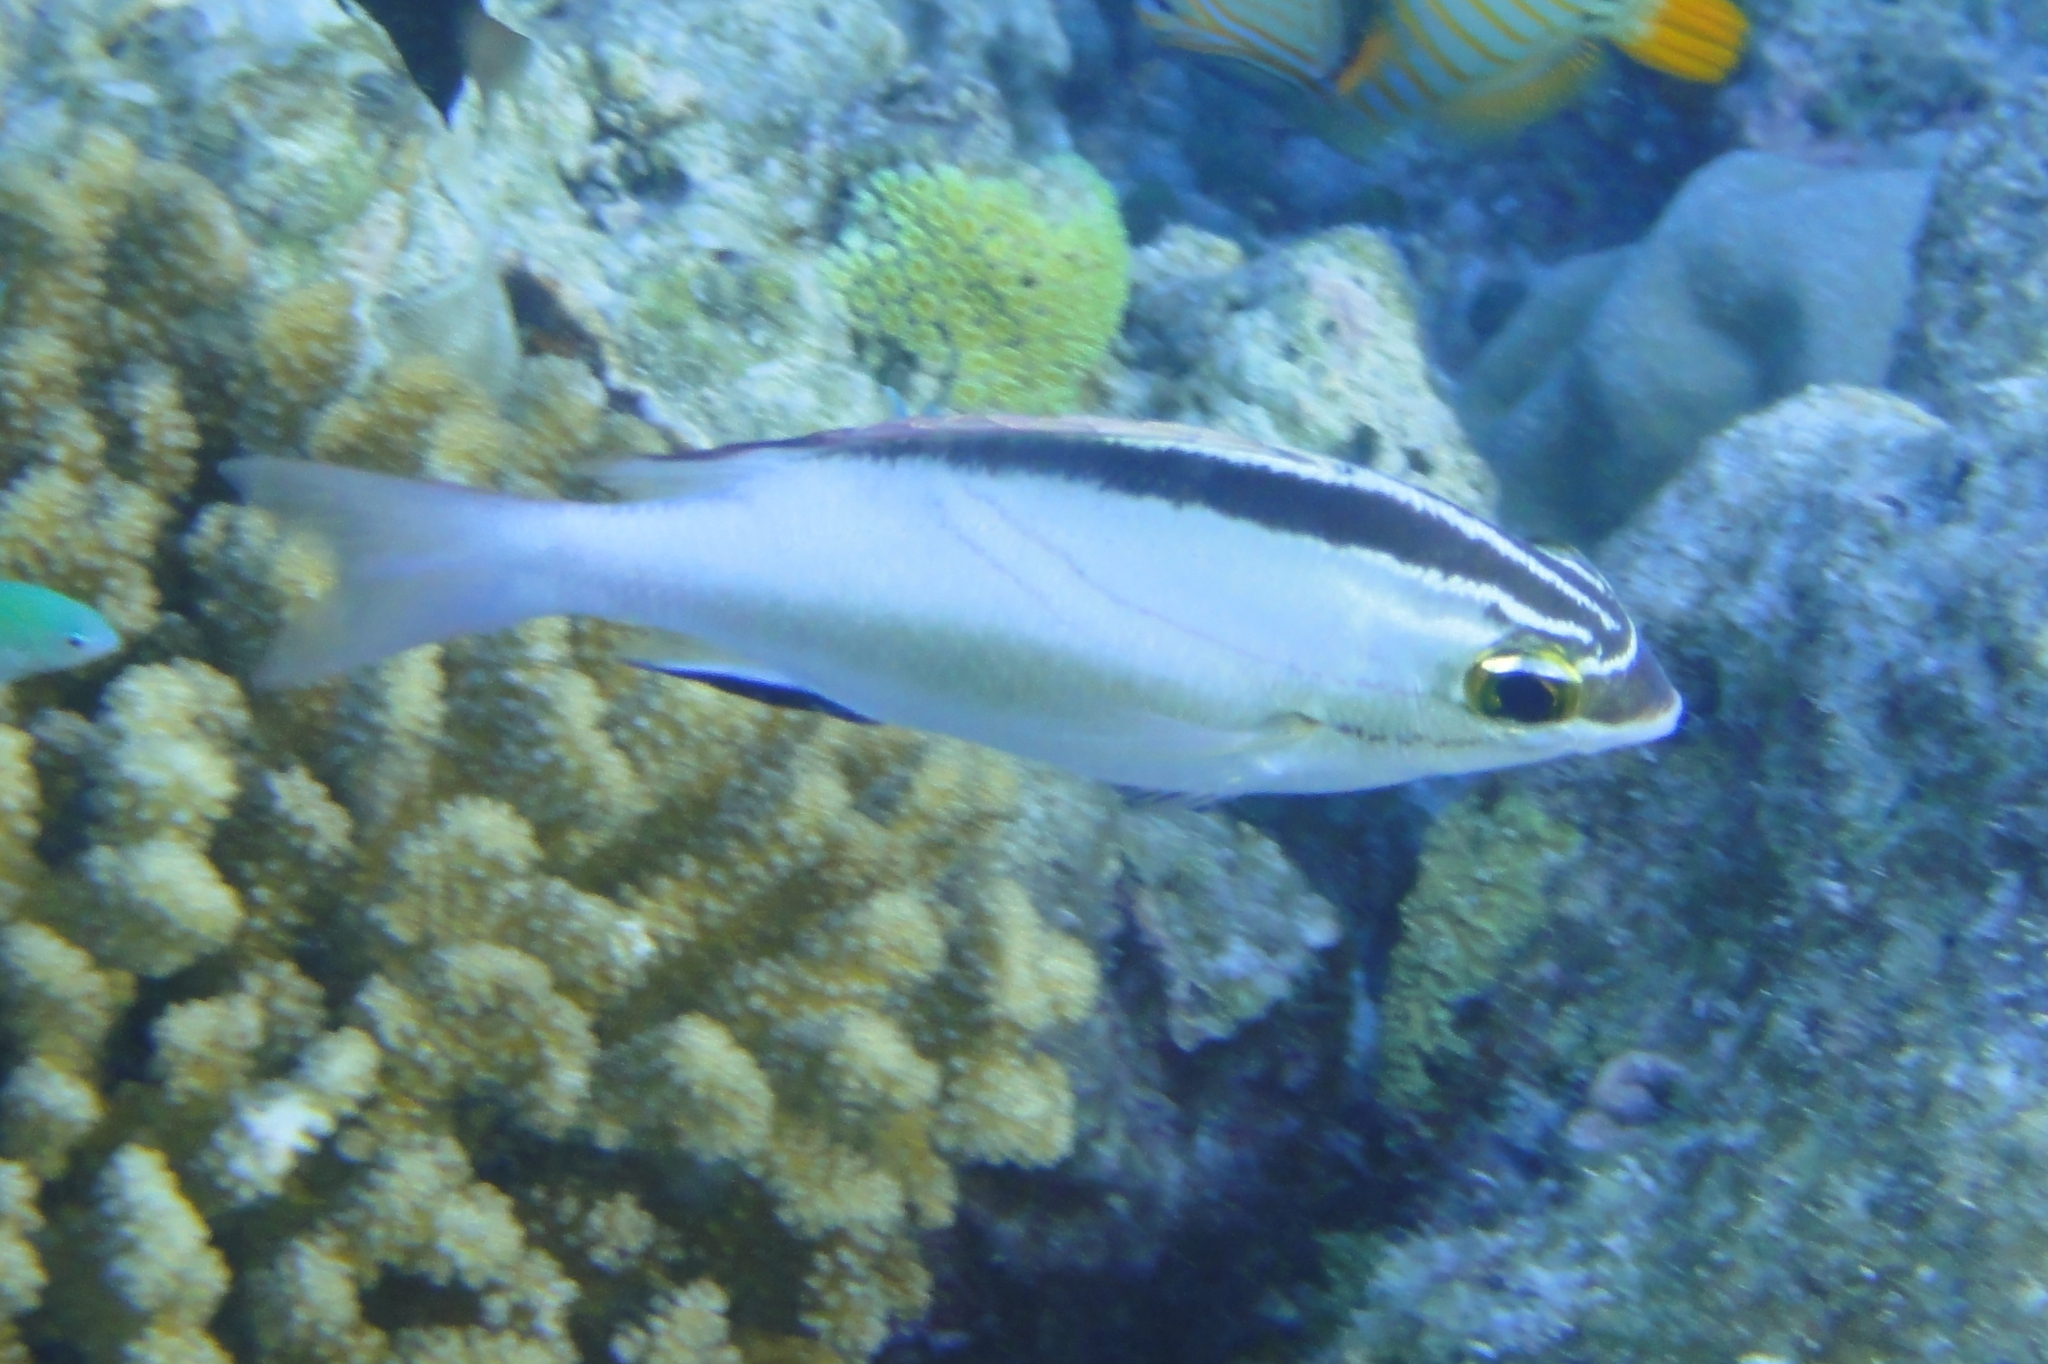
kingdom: Animalia
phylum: Chordata
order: Perciformes
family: Nemipteridae
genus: Scolopsis
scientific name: Scolopsis bilineata
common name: Two-lined monocle bream
